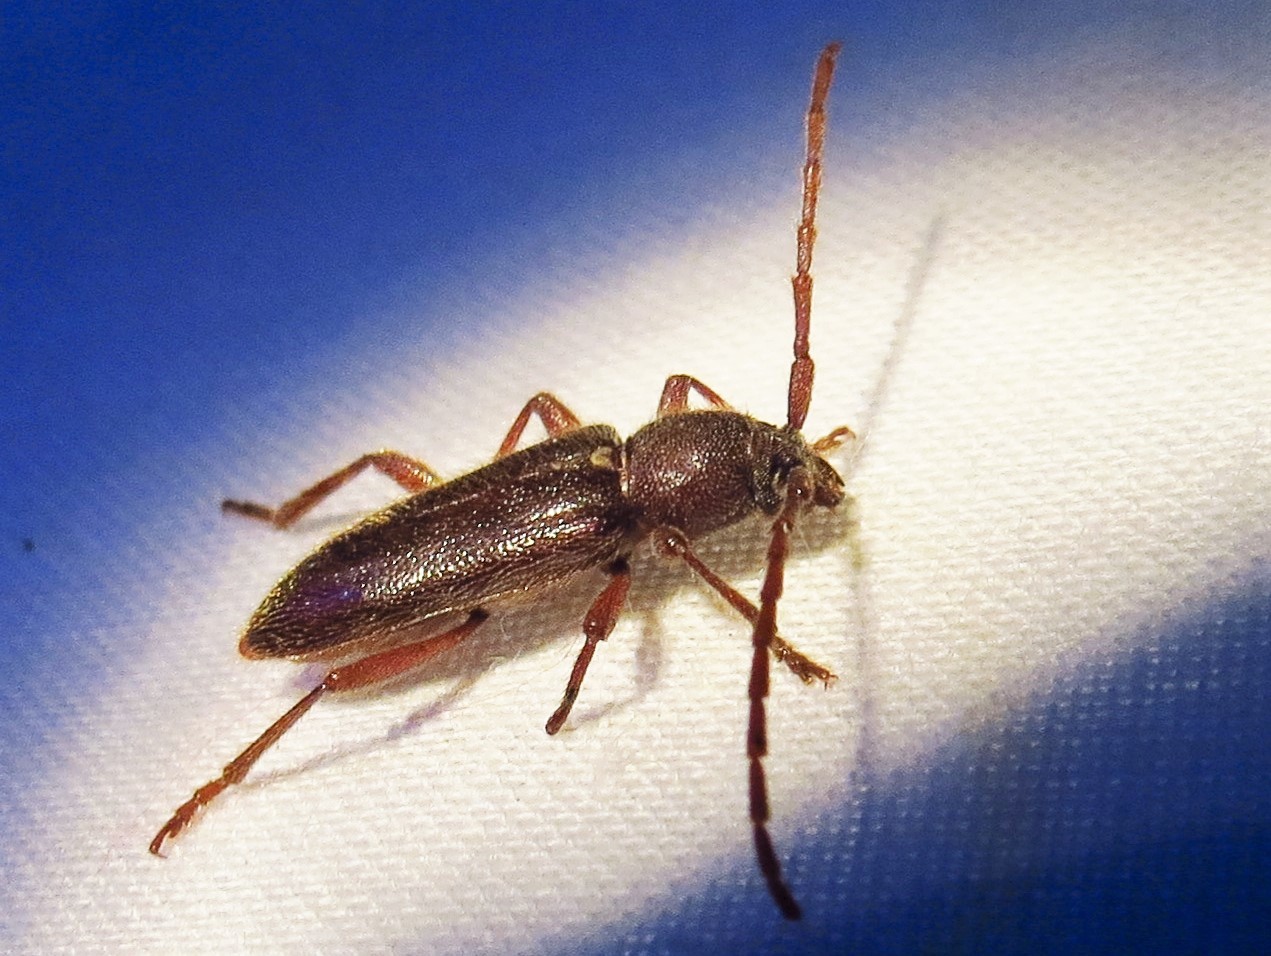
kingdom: Animalia
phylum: Arthropoda
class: Insecta
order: Coleoptera
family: Cerambycidae
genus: Anelaphus
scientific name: Anelaphus moestus
